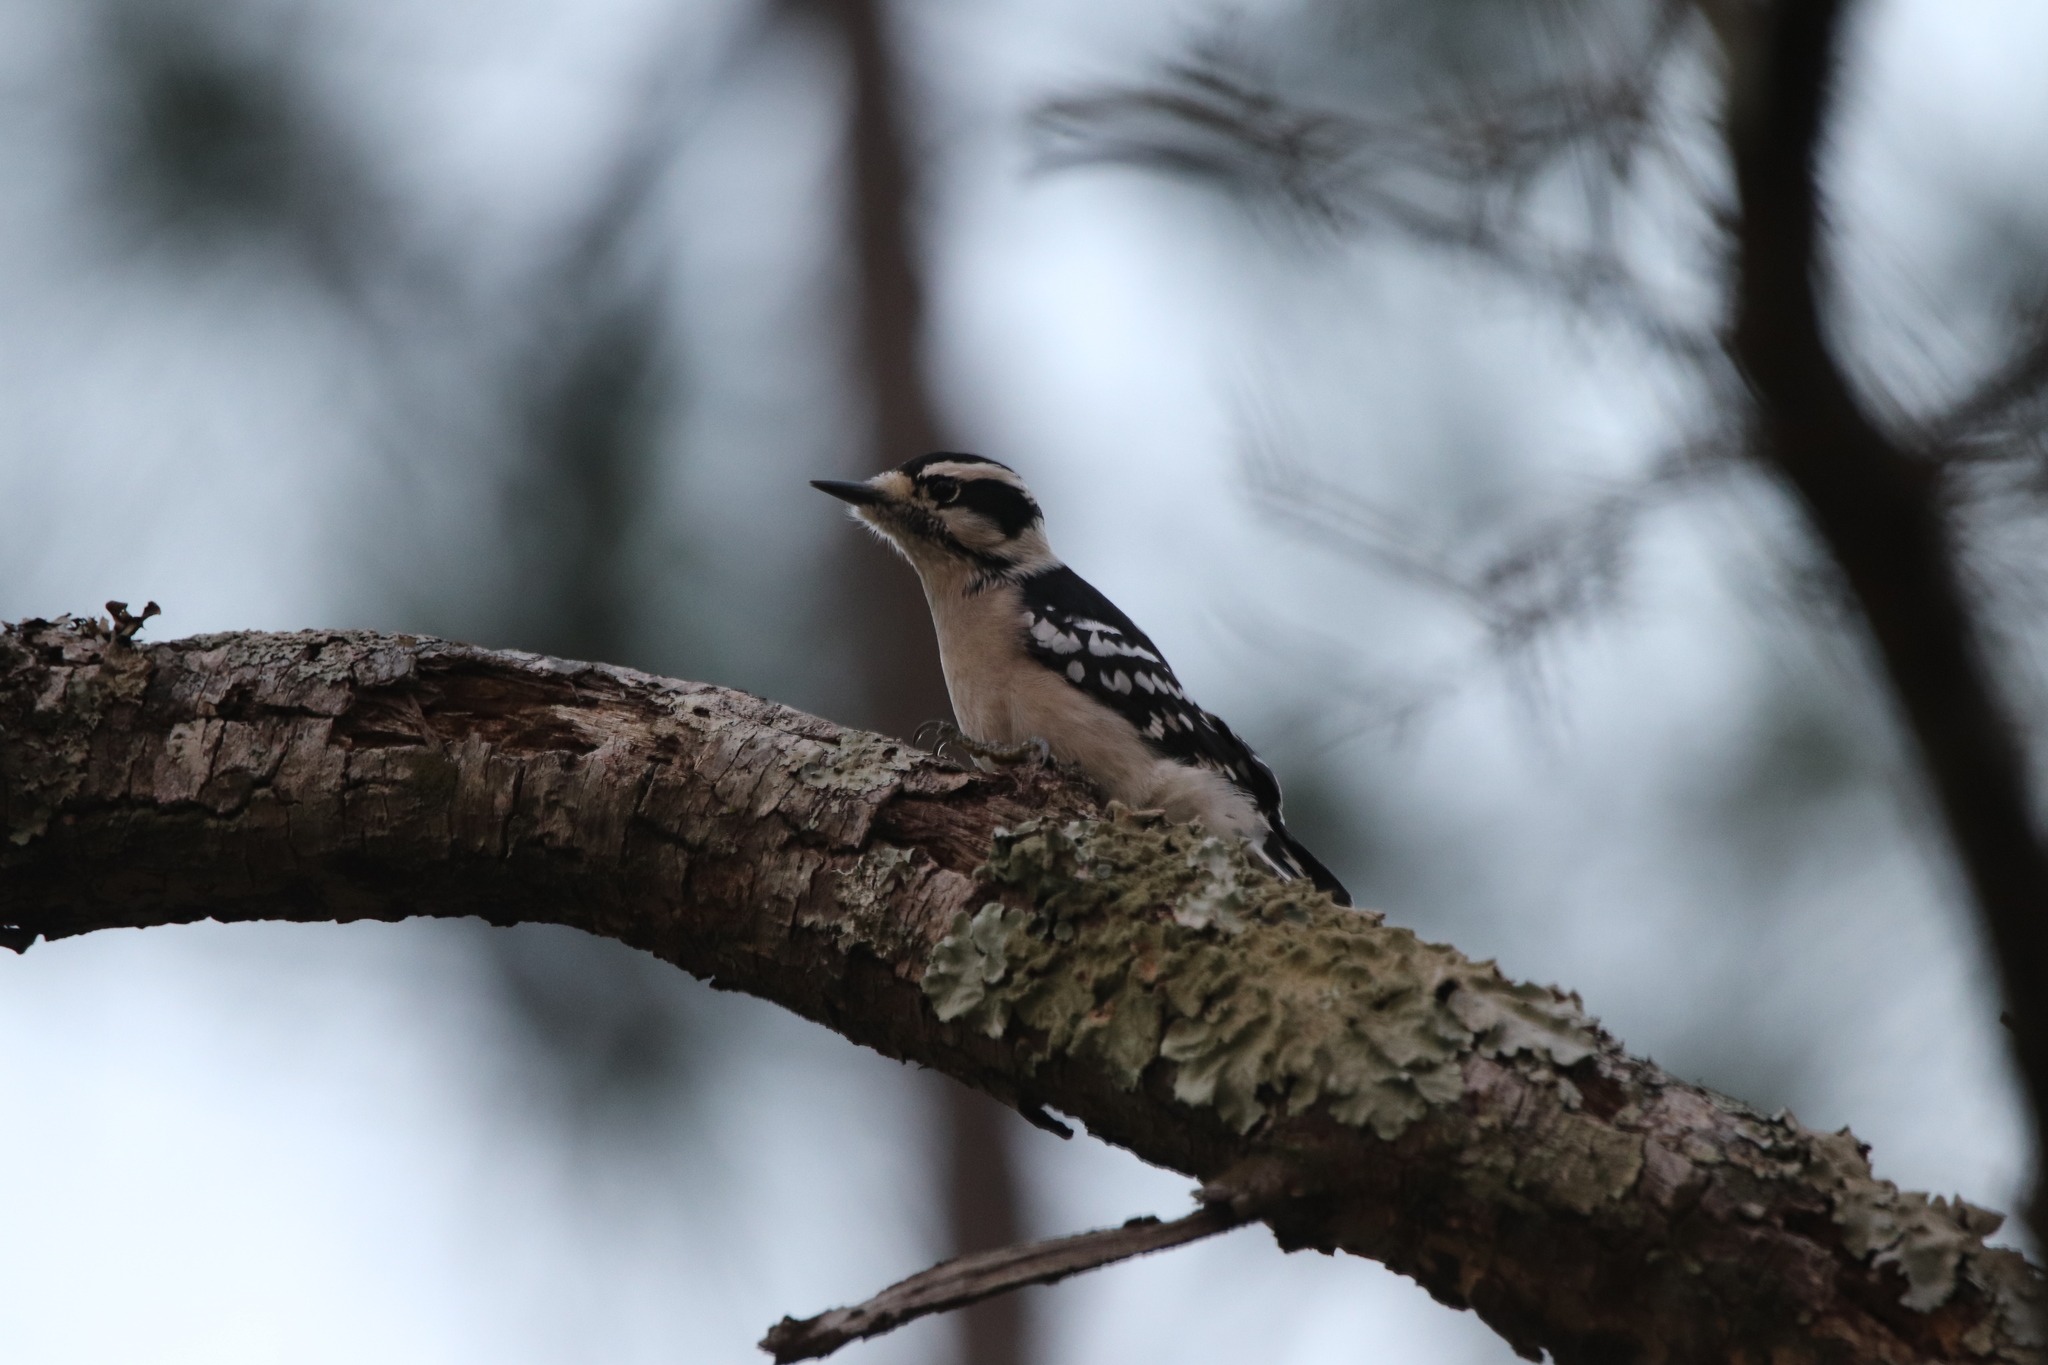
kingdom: Animalia
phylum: Chordata
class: Aves
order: Piciformes
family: Picidae
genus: Dryobates
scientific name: Dryobates pubescens
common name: Downy woodpecker
